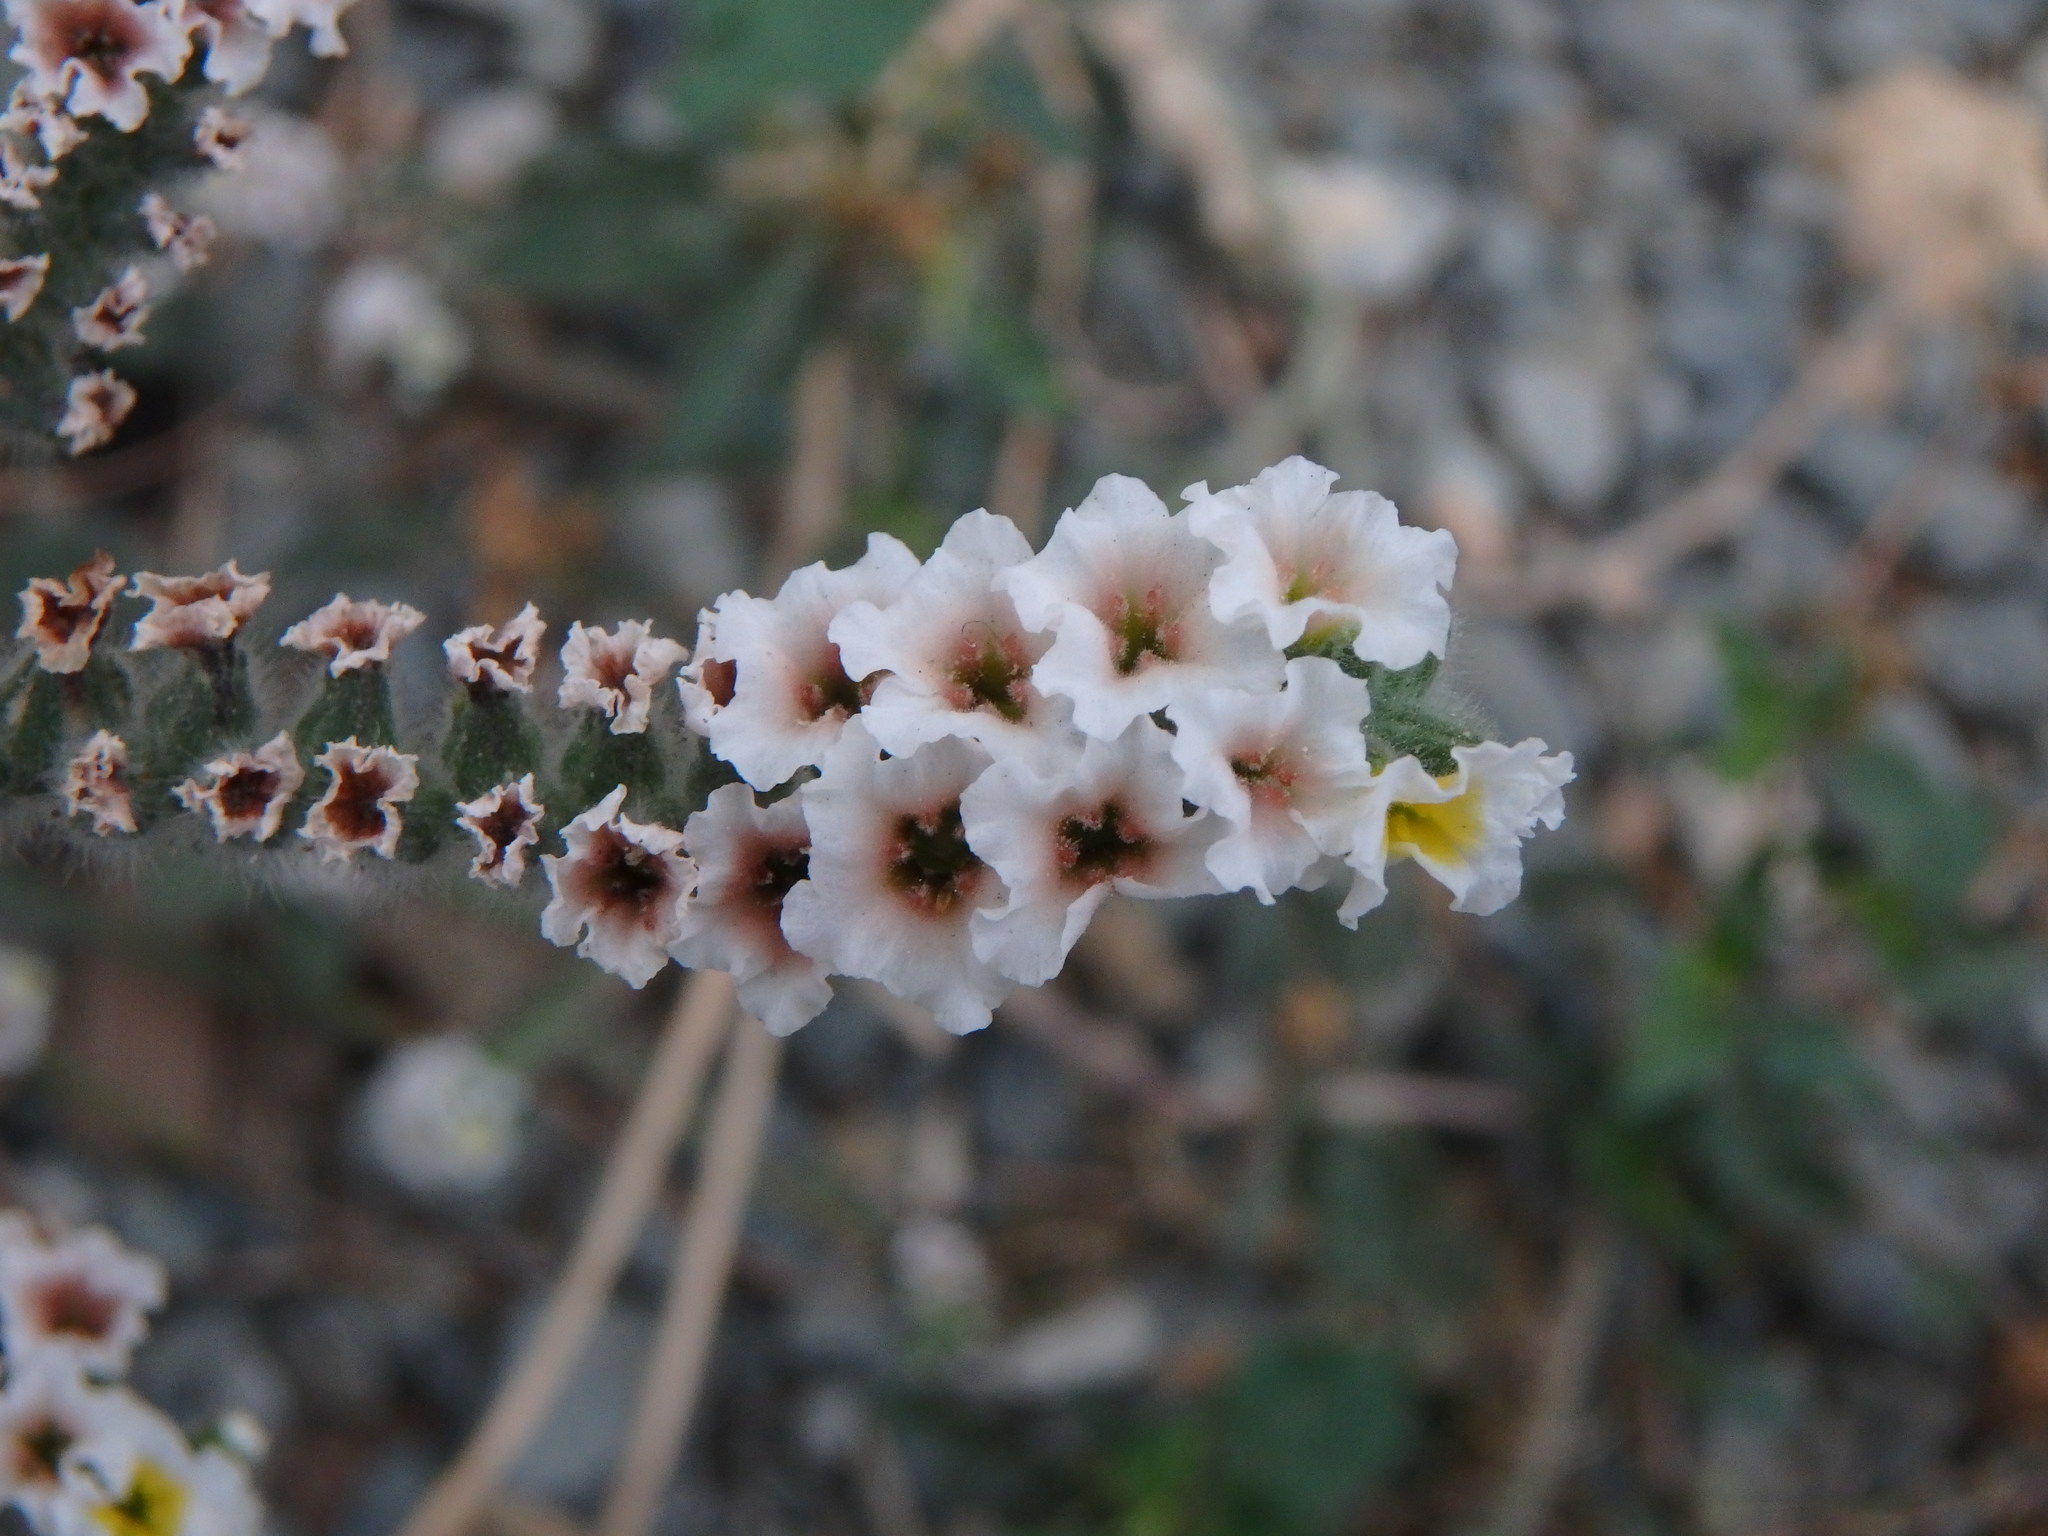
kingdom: Plantae
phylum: Tracheophyta
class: Magnoliopsida
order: Boraginales
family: Heliotropiaceae
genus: Heliotropium
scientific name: Heliotropium hirsutissimum
